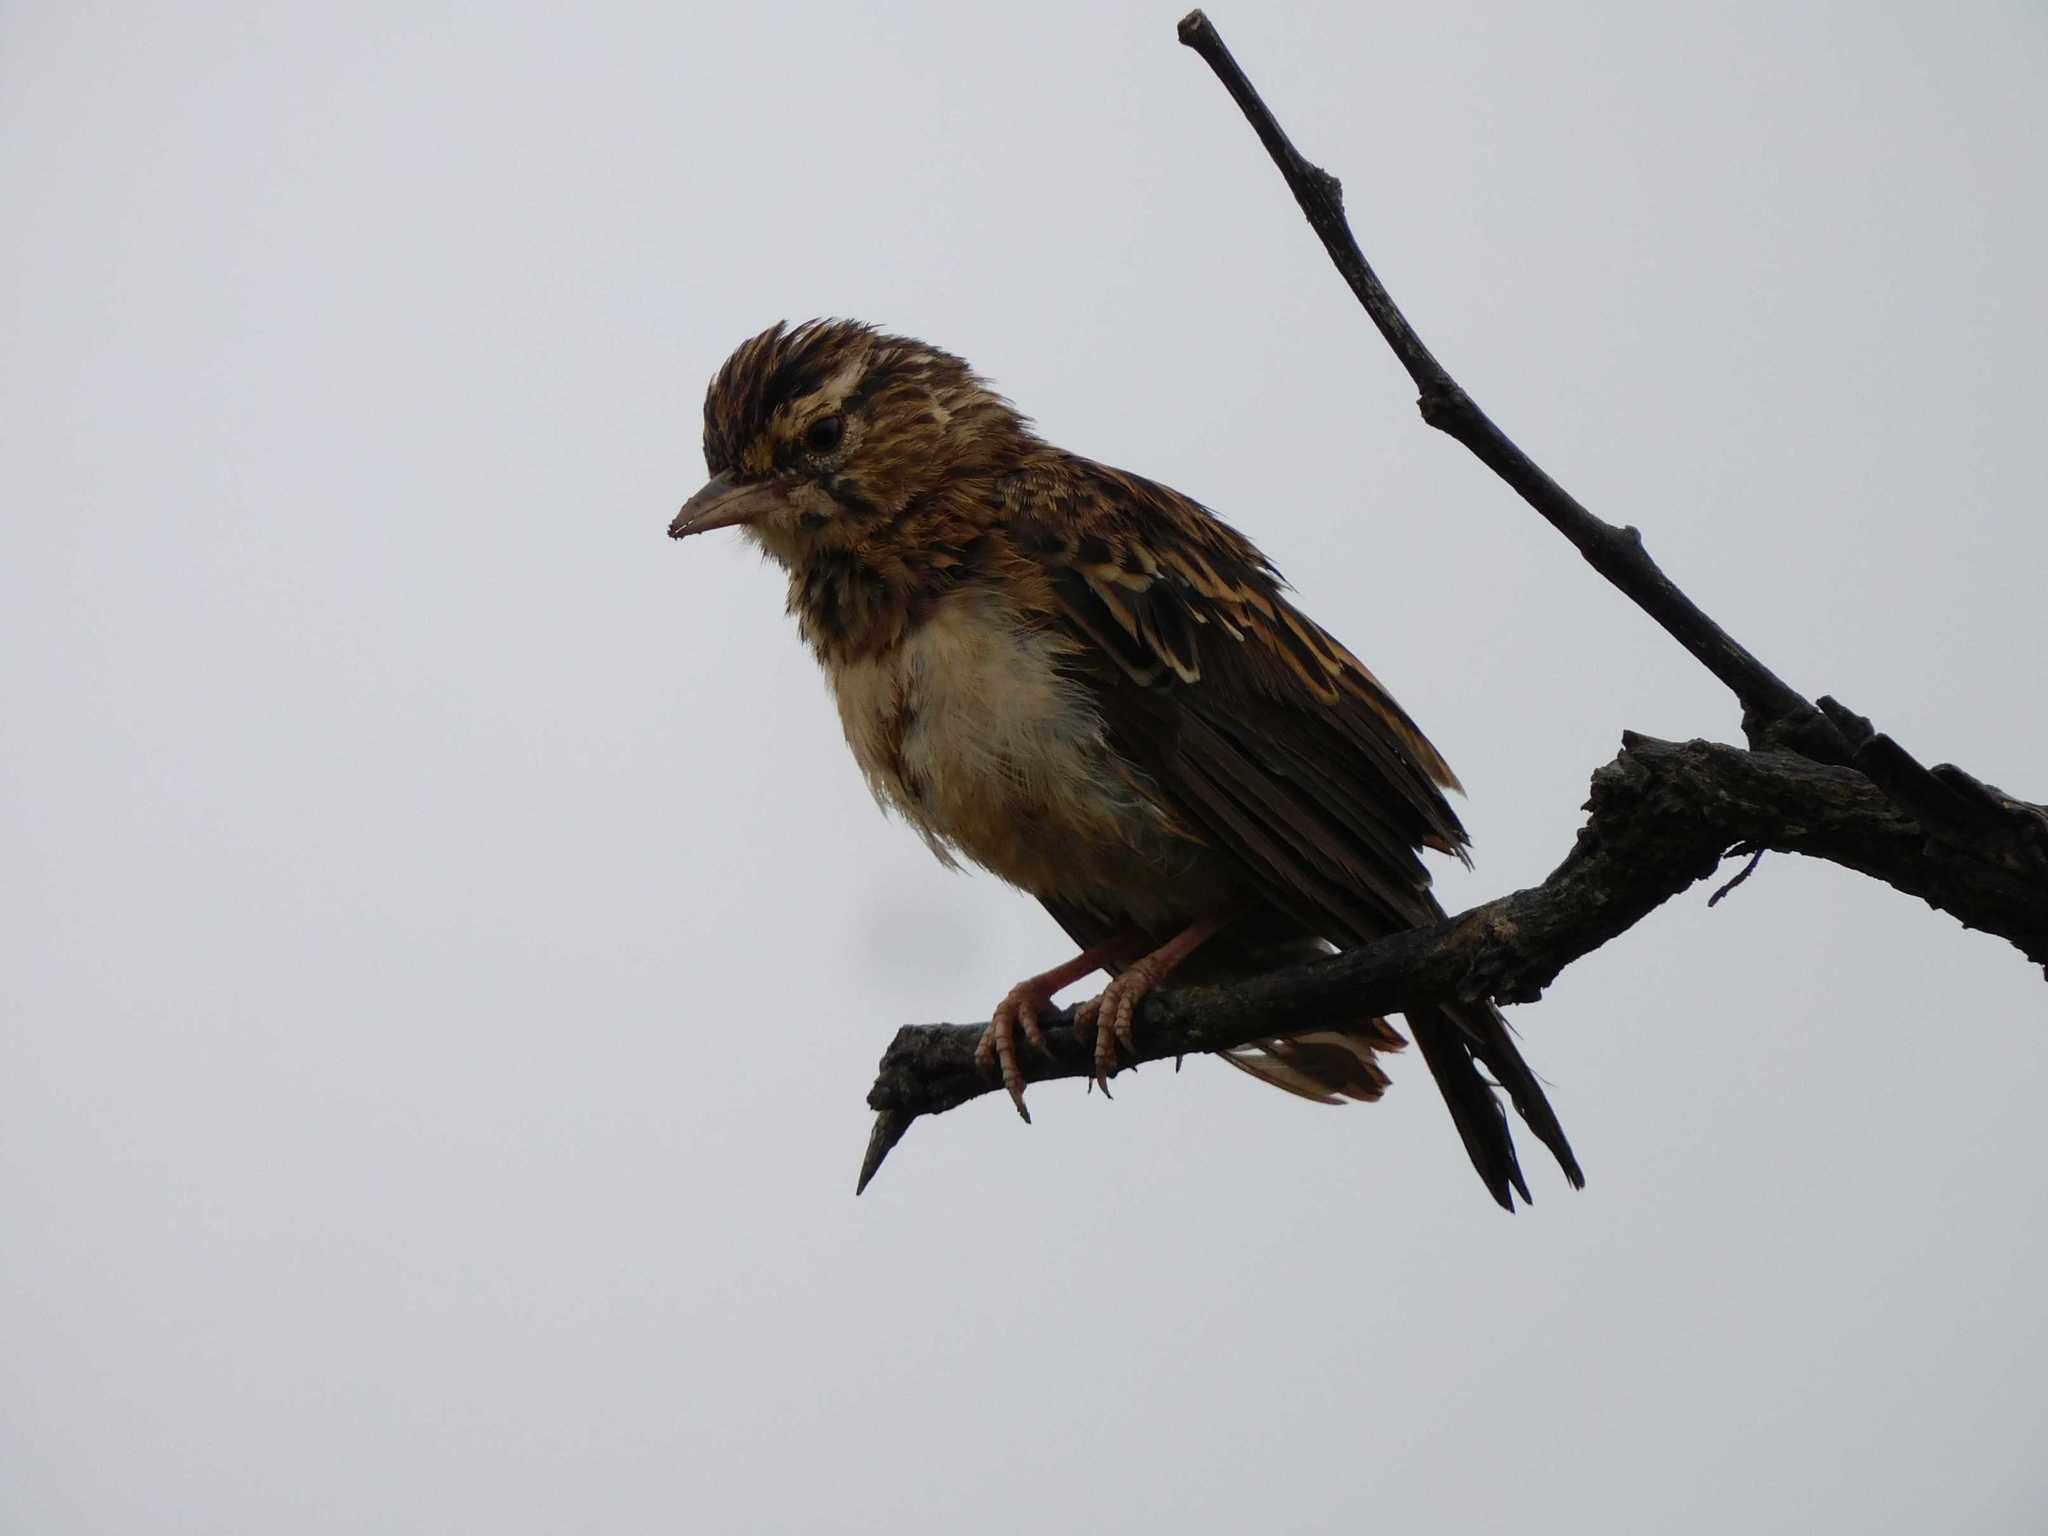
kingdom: Animalia
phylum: Chordata
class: Aves
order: Passeriformes
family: Alaudidae
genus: Calendulauda
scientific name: Calendulauda sabota
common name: Sabota lark
